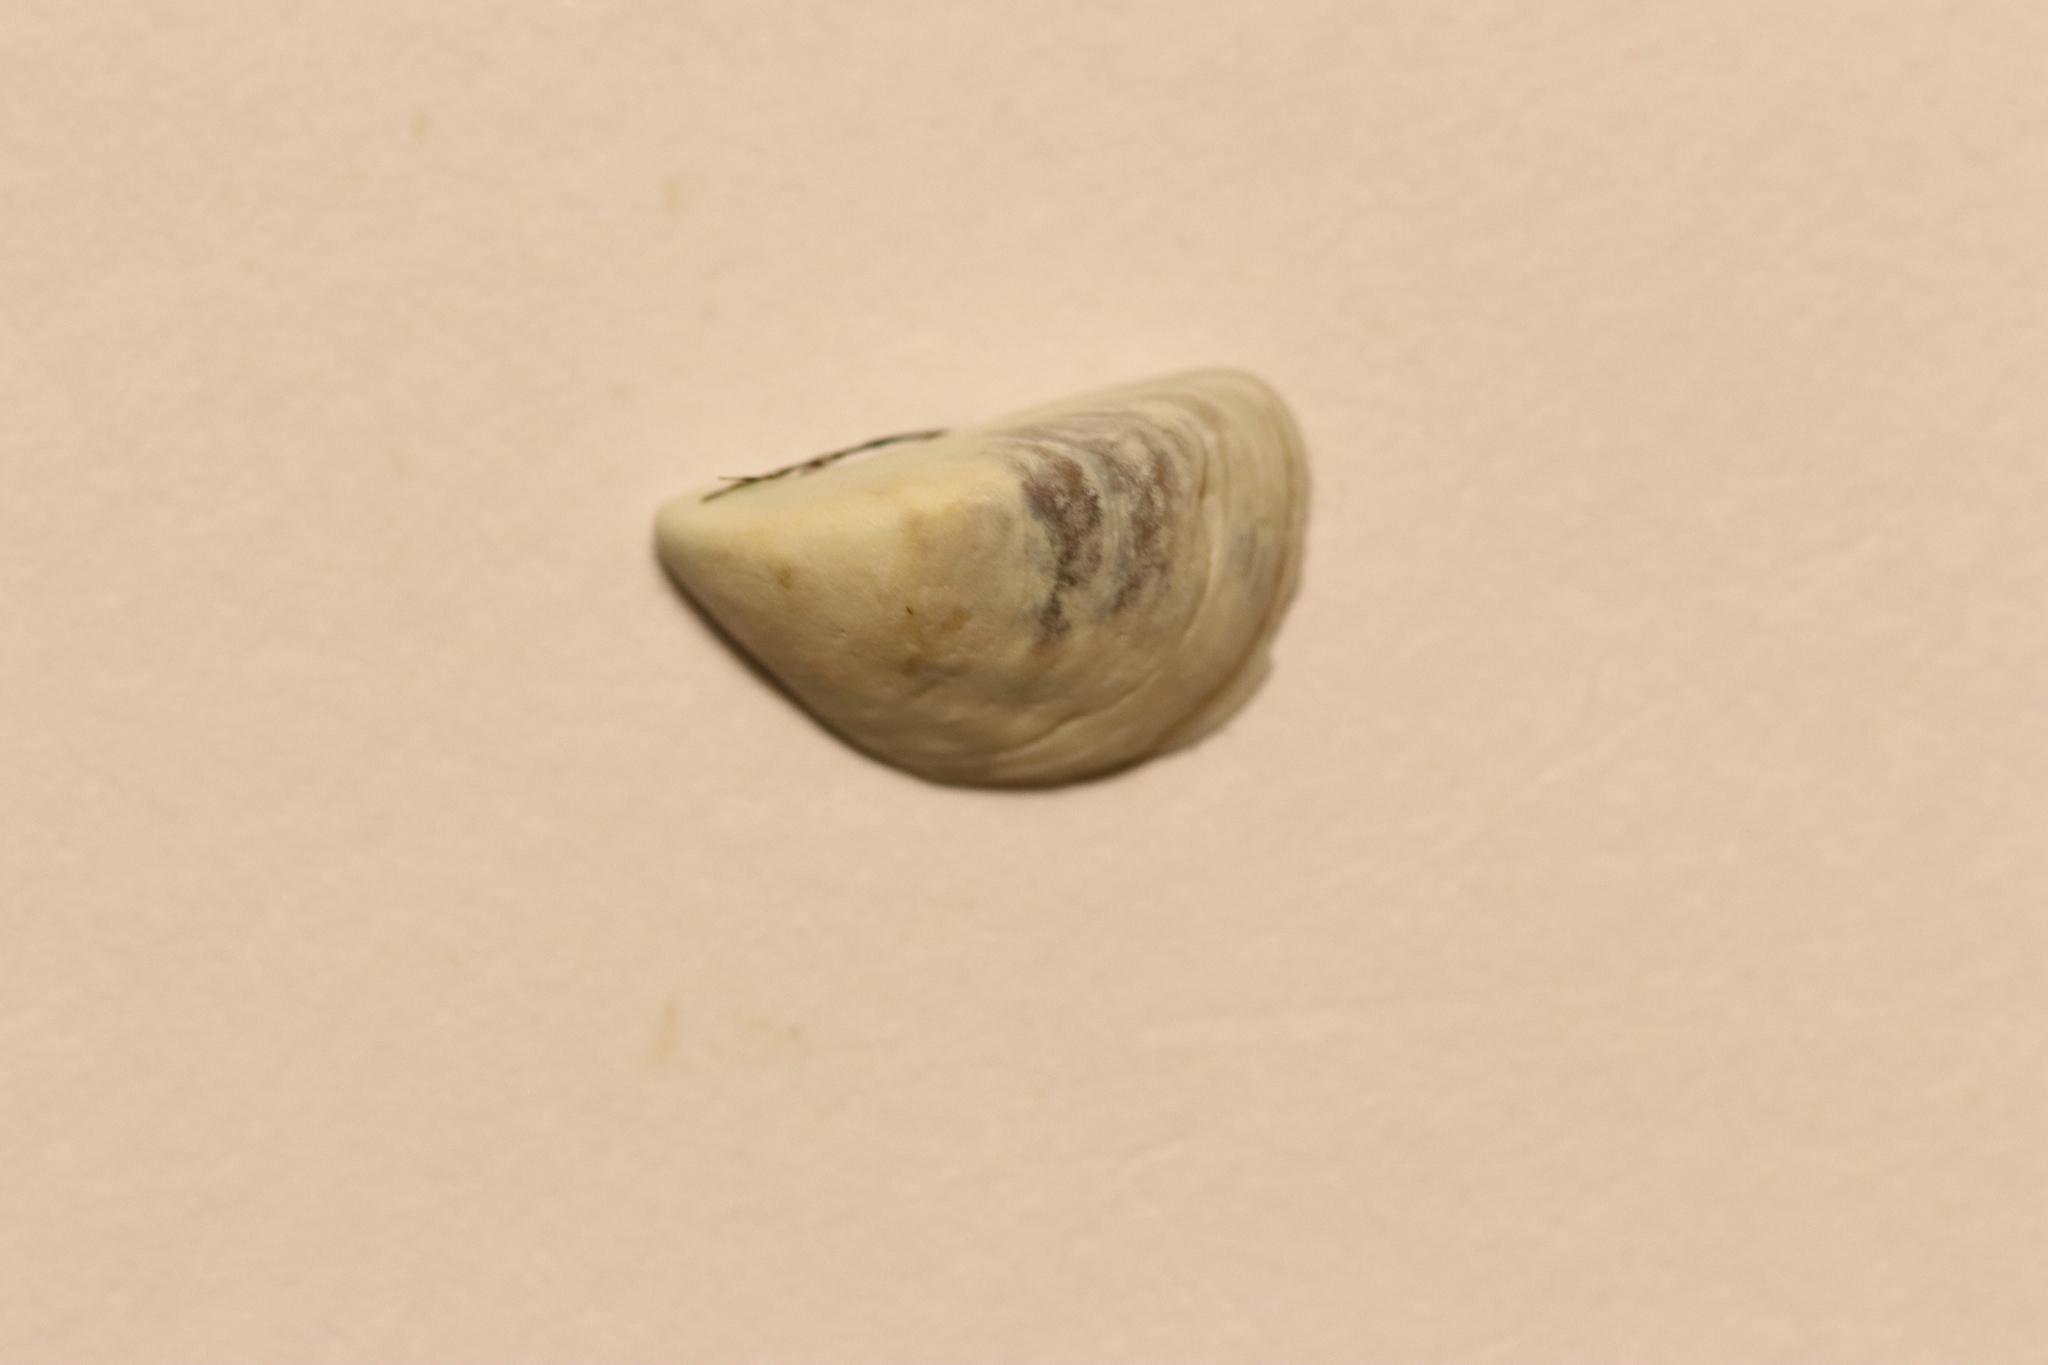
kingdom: Animalia
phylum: Mollusca
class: Bivalvia
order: Myida
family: Dreissenidae
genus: Dreissena
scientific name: Dreissena polymorpha
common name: Zebra mussel
